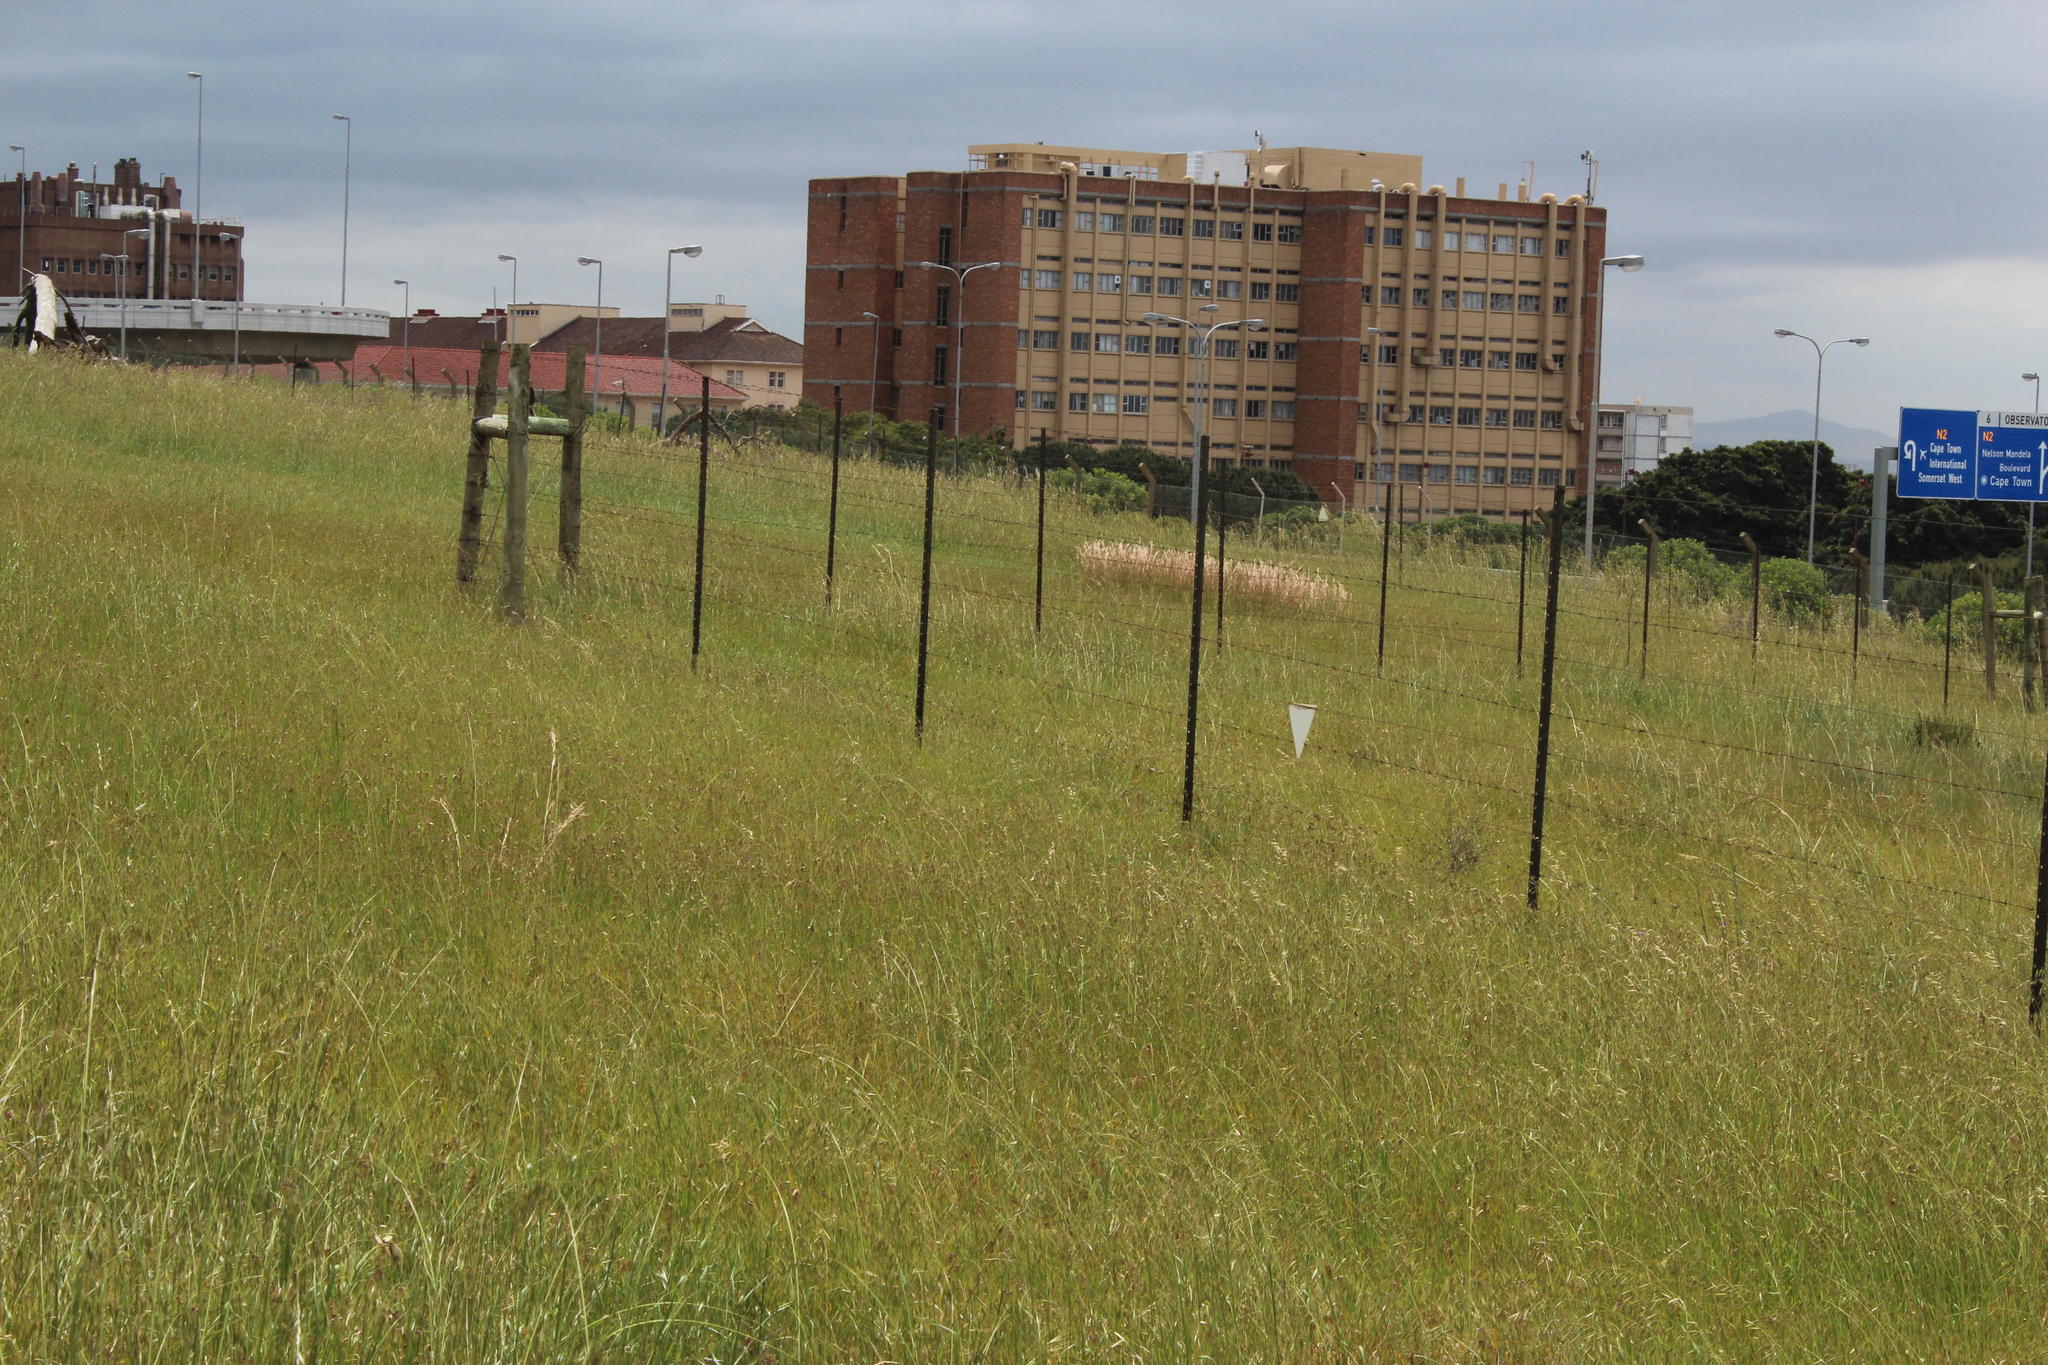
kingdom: Plantae
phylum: Tracheophyta
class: Liliopsida
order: Poales
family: Poaceae
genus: Hyparrhenia
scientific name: Hyparrhenia hirta
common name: Thatching grass
